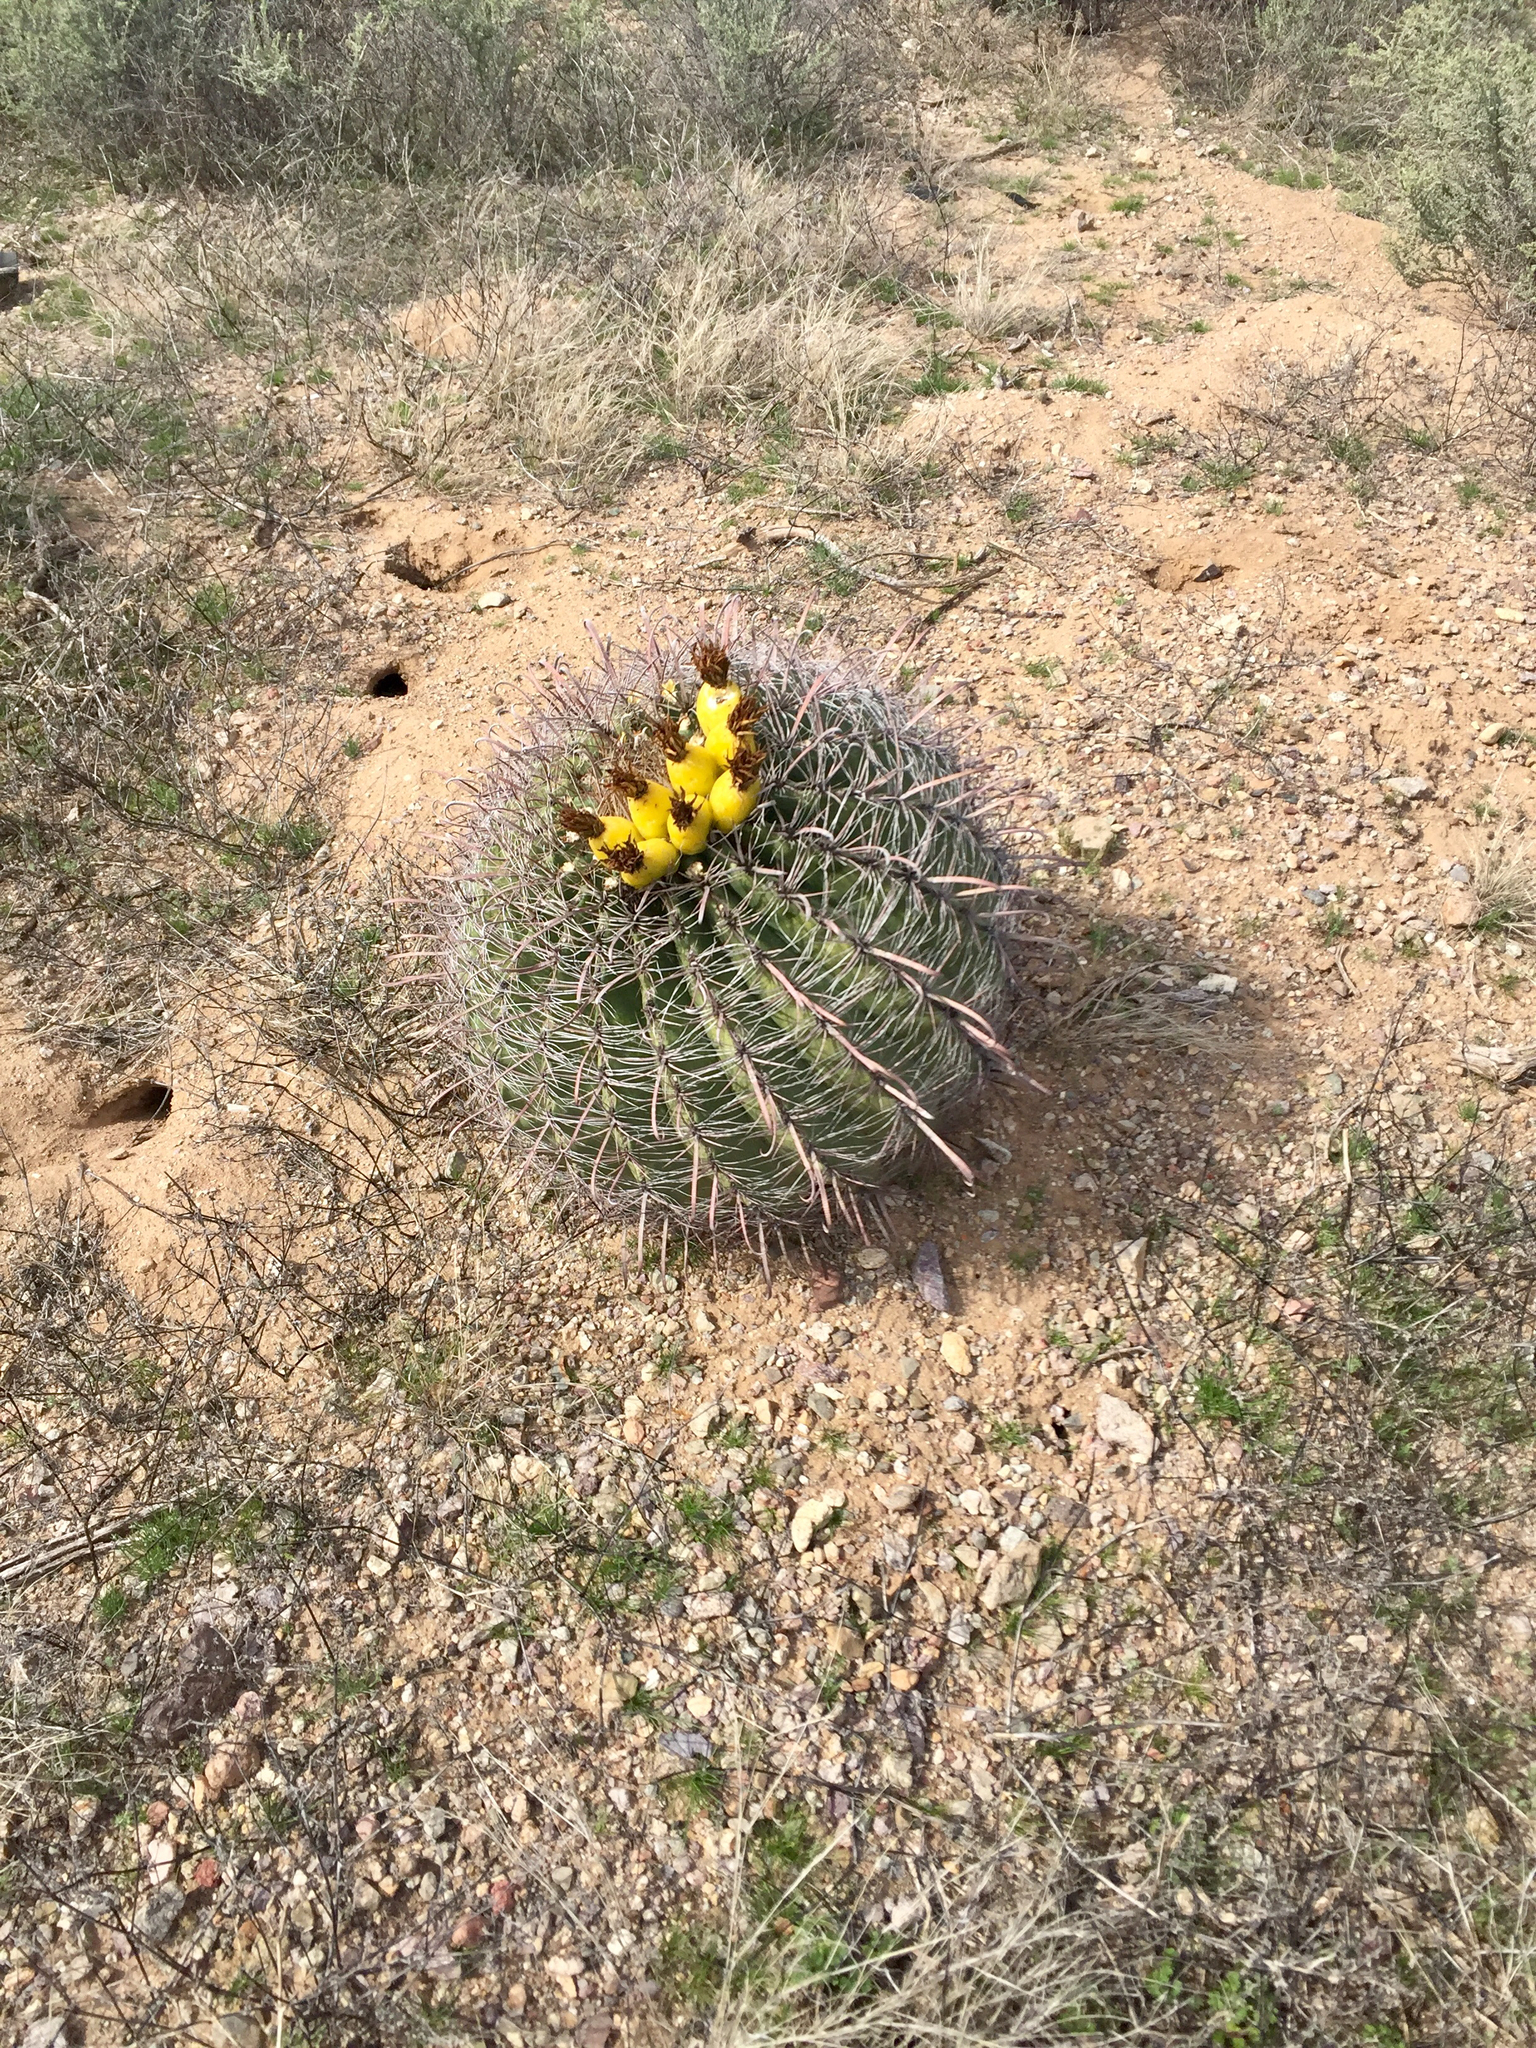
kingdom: Plantae
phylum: Tracheophyta
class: Magnoliopsida
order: Caryophyllales
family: Cactaceae
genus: Ferocactus
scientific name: Ferocactus wislizeni
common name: Candy barrel cactus
